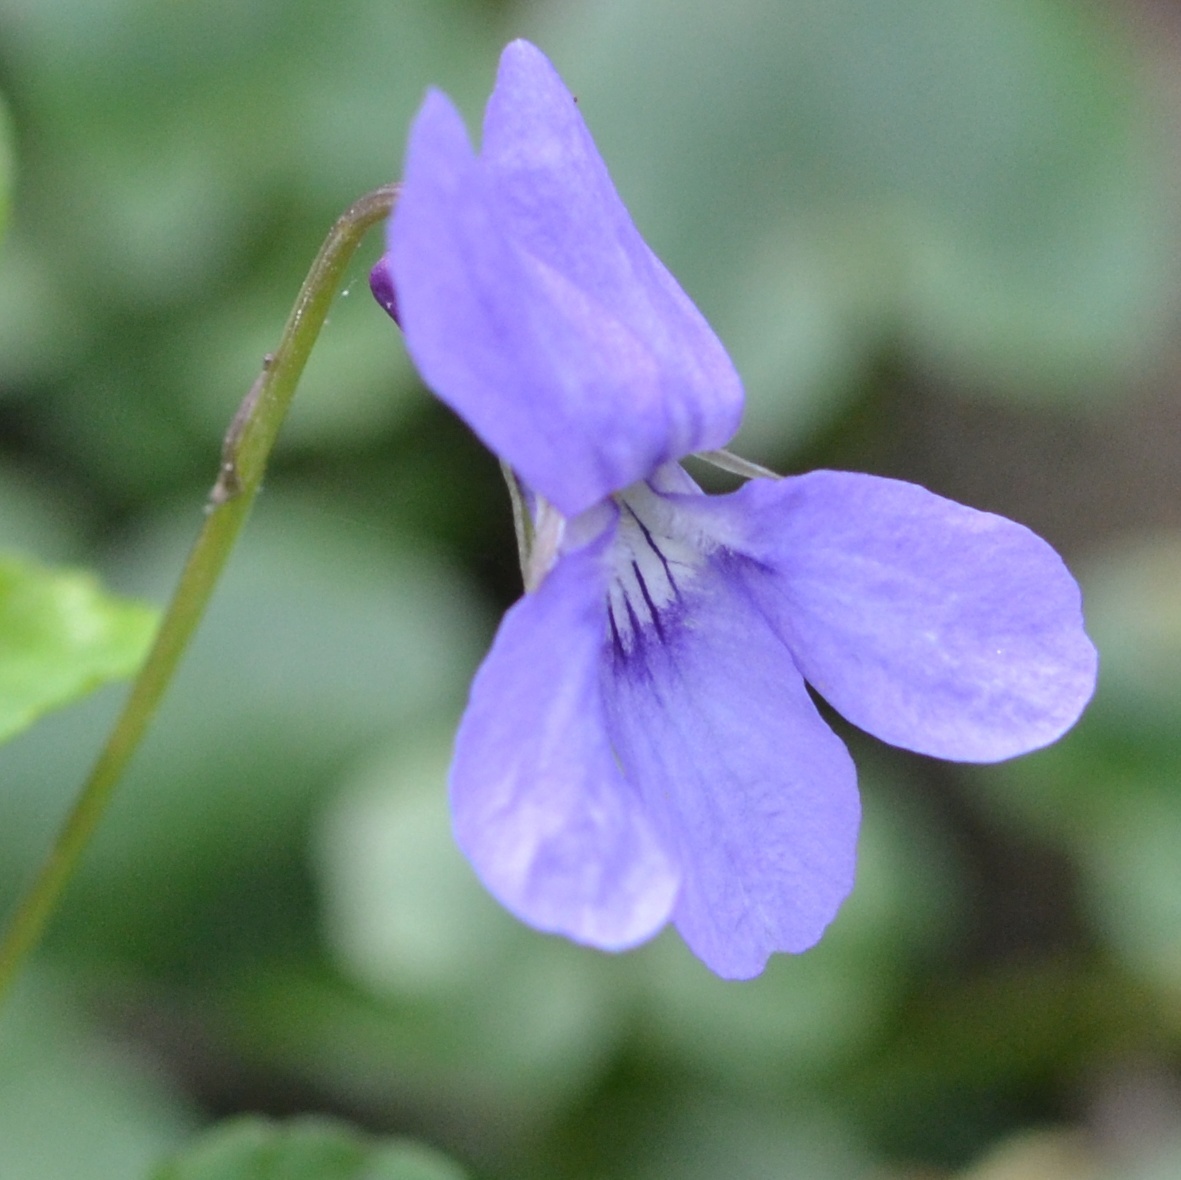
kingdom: Plantae
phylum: Tracheophyta
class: Magnoliopsida
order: Malpighiales
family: Violaceae
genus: Viola
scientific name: Viola reichenbachiana
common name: Early dog-violet
